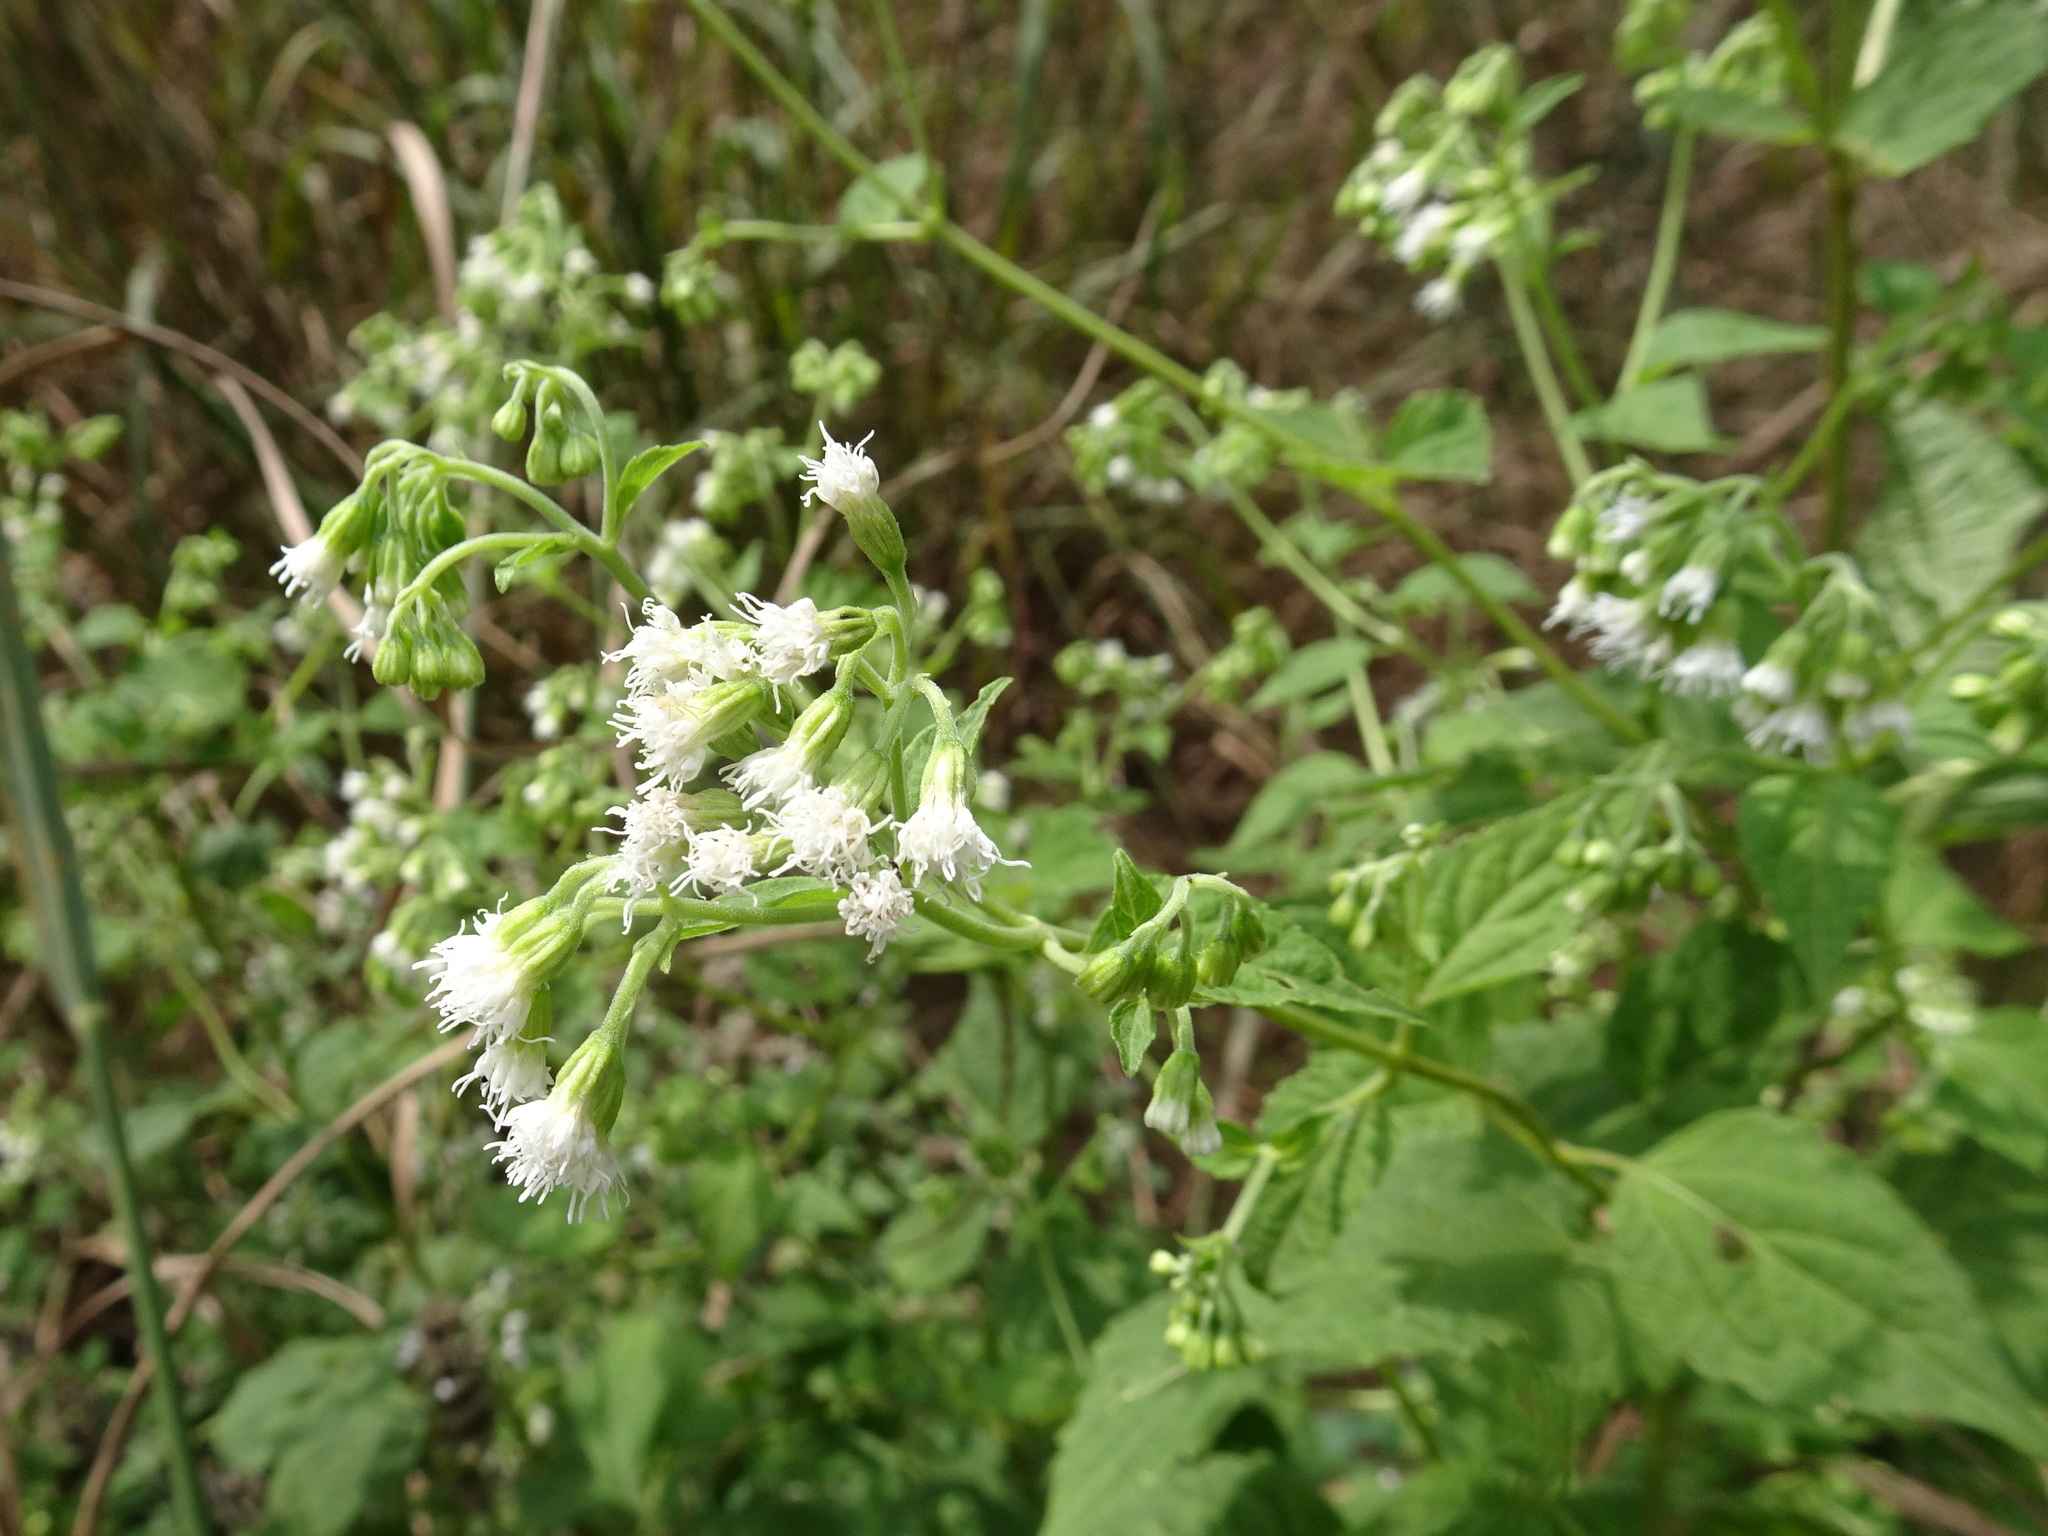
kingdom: Plantae
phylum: Tracheophyta
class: Magnoliopsida
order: Asterales
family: Asteraceae
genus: Ageratina
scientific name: Ageratina altissima
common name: White snakeroot
